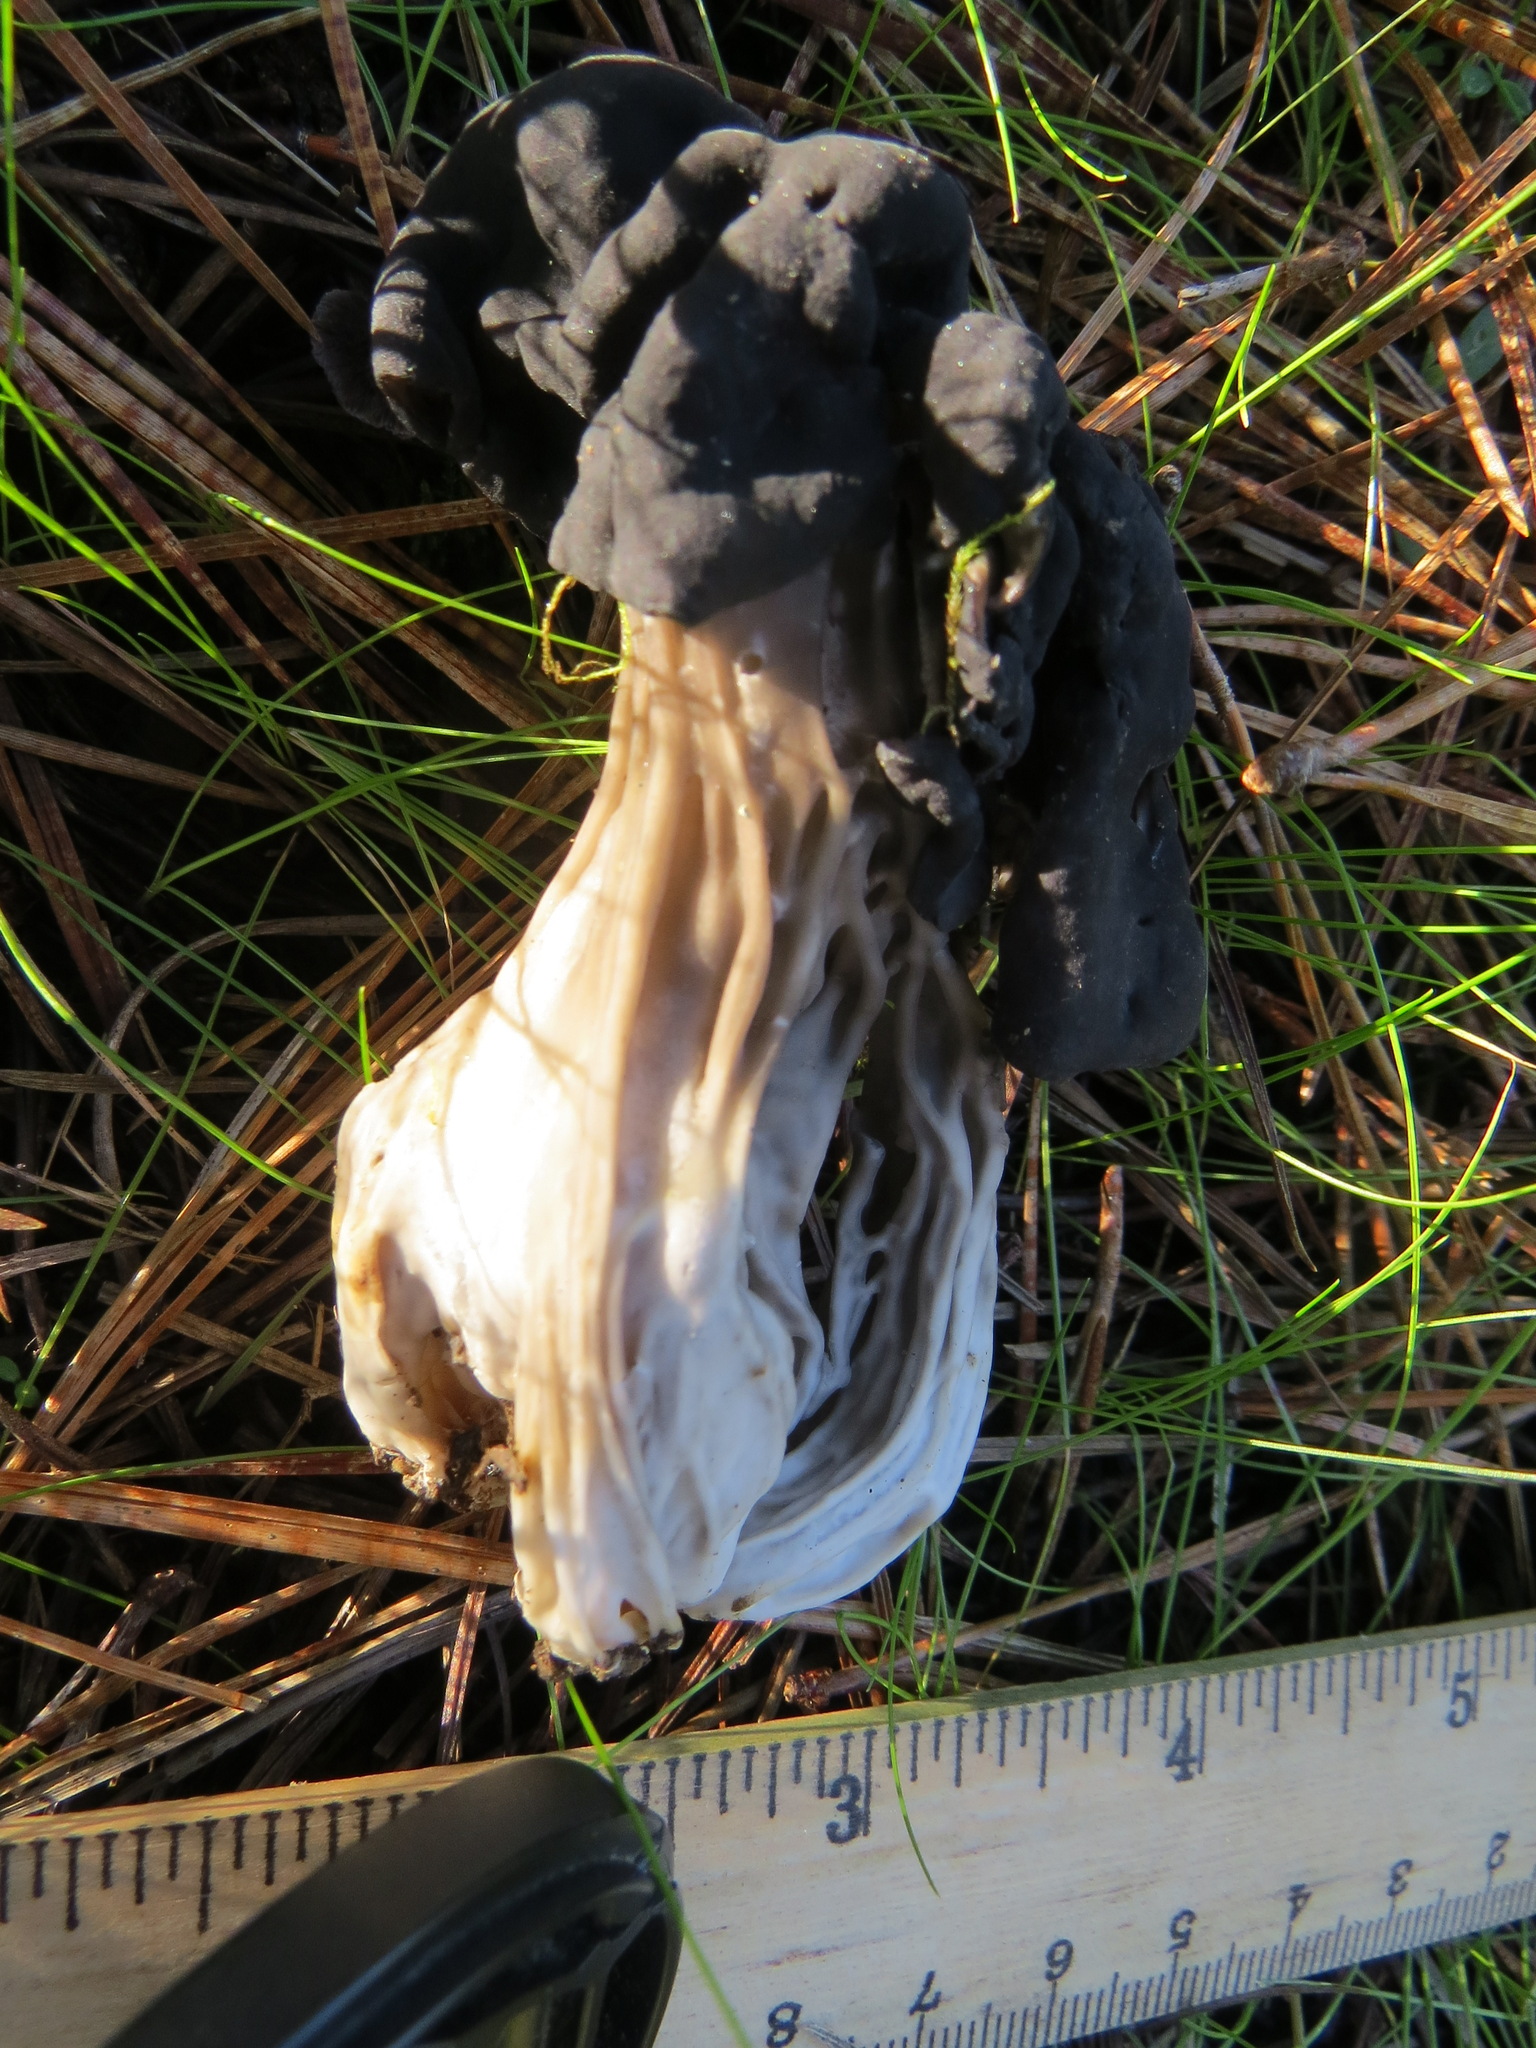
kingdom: Fungi
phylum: Ascomycota
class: Pezizomycetes
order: Pezizales
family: Helvellaceae
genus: Helvella
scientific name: Helvella vespertina
